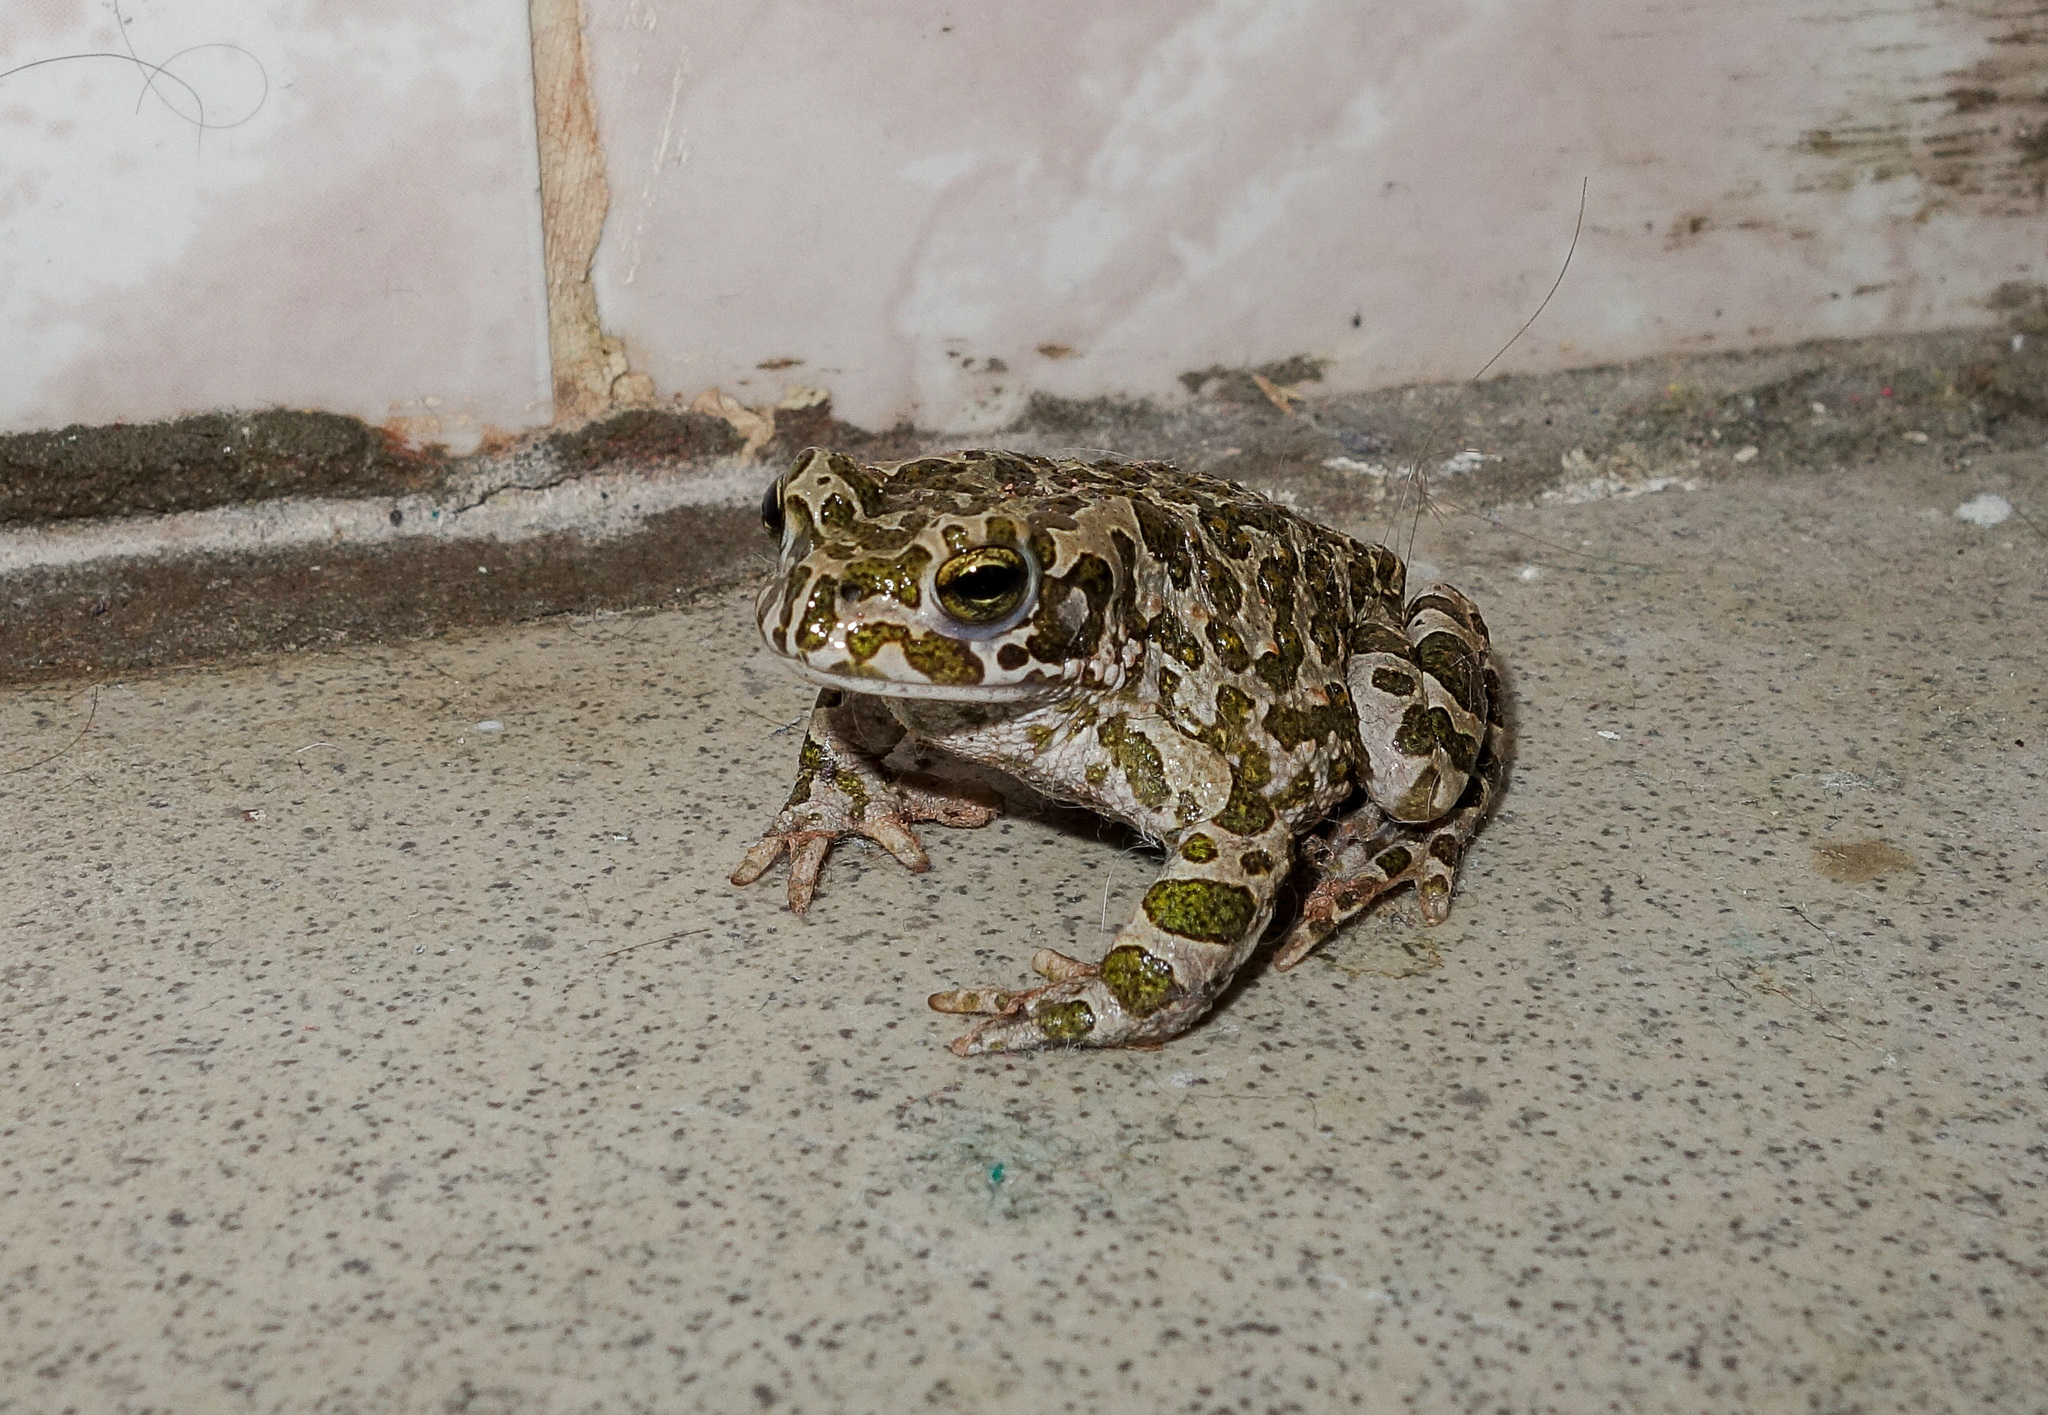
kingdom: Animalia
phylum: Chordata
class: Amphibia
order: Anura
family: Bufonidae
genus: Bufotes
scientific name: Bufotes viridis
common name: European green toad
